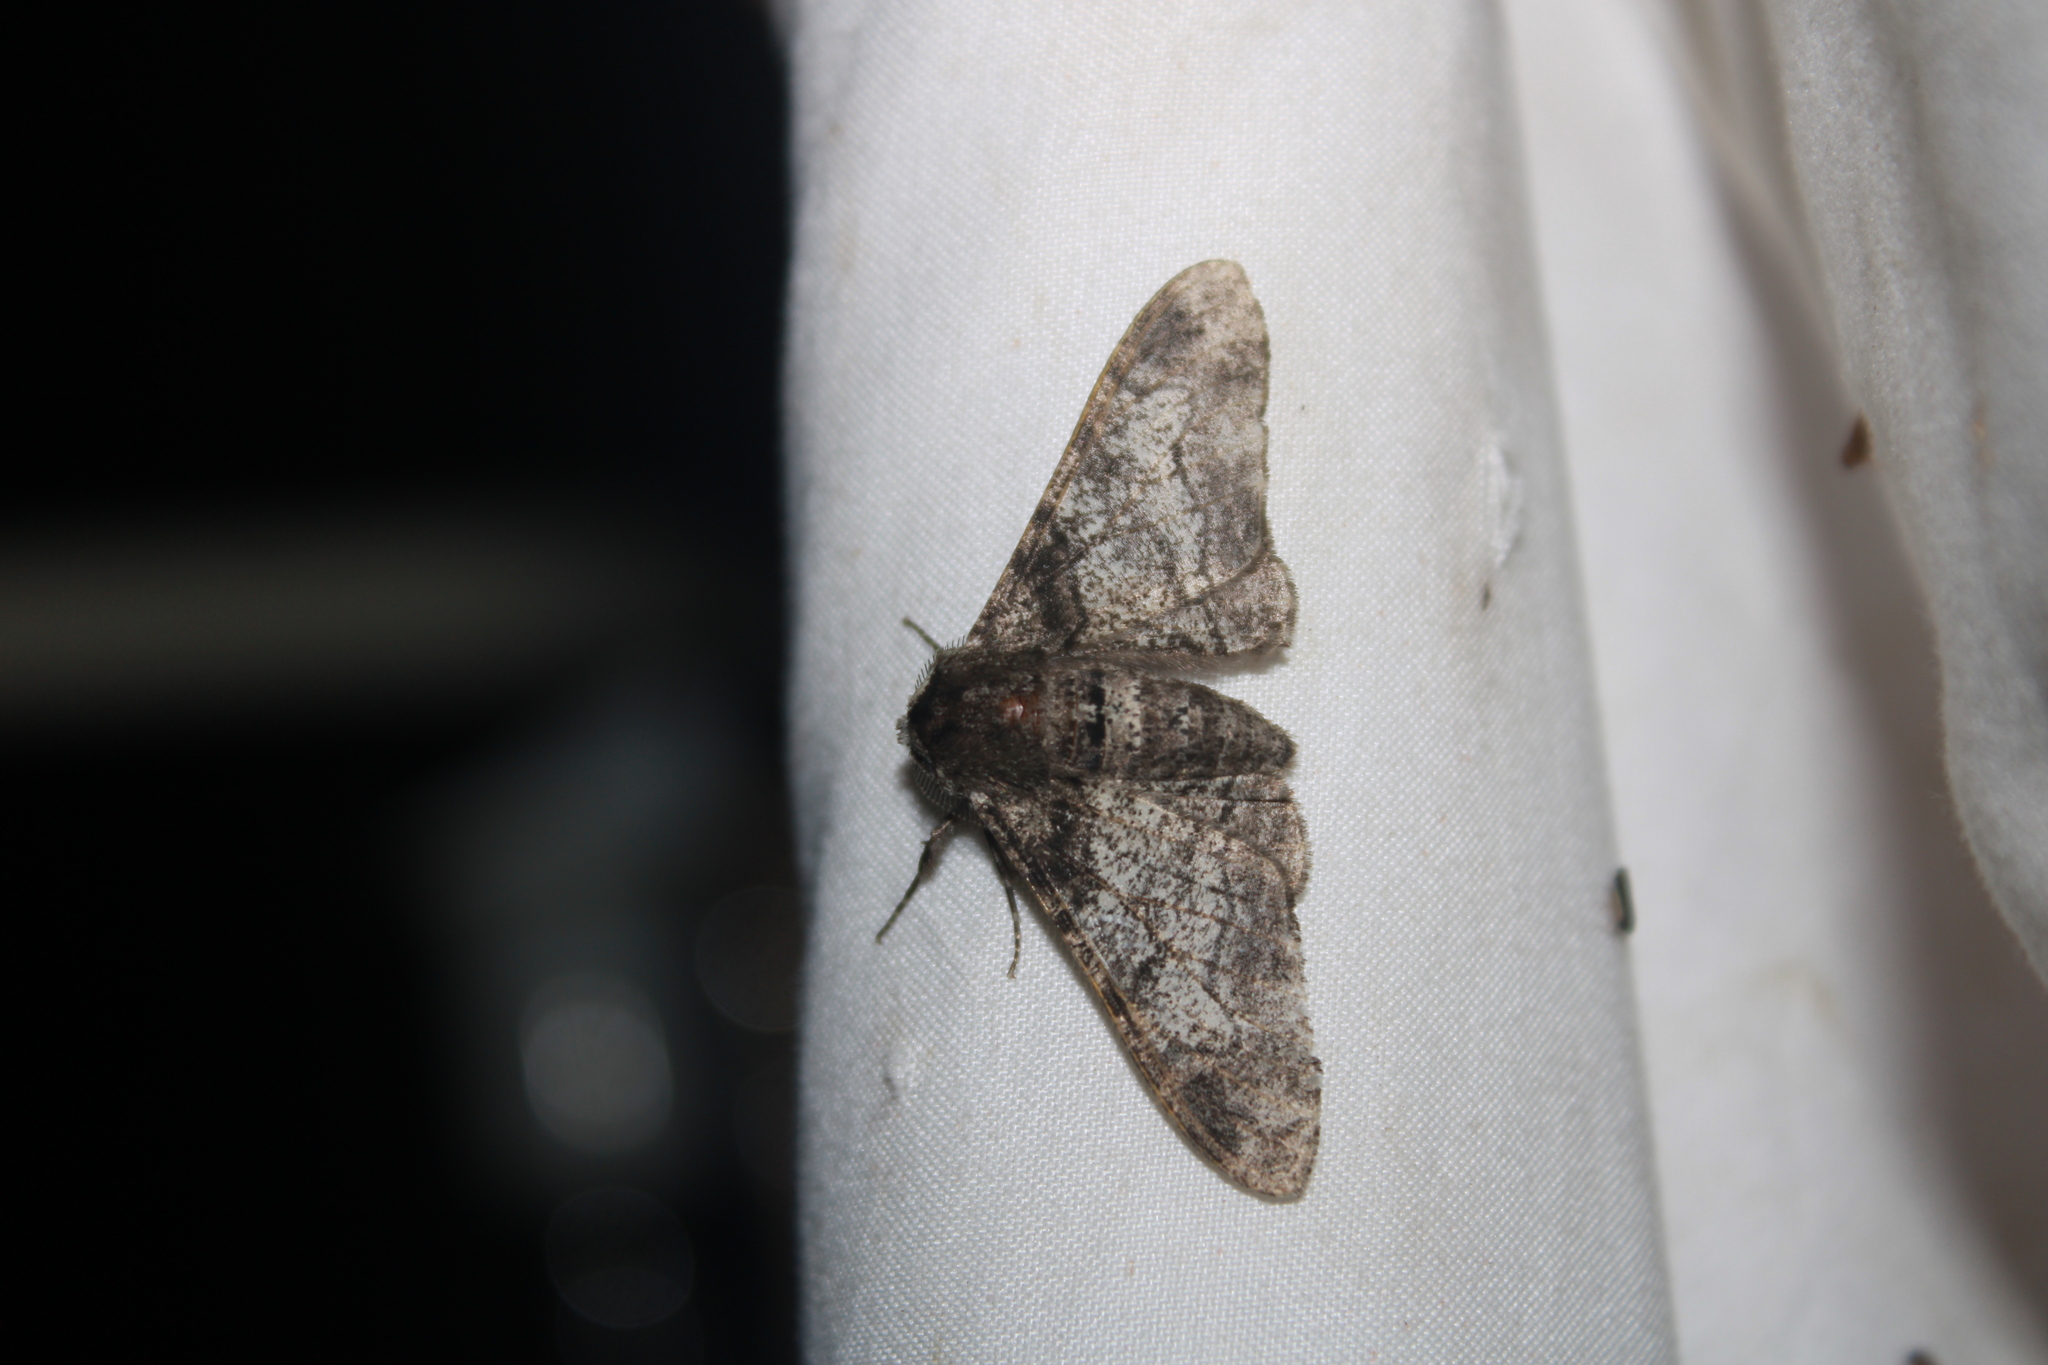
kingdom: Animalia
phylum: Arthropoda
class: Insecta
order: Lepidoptera
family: Geometridae
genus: Biston
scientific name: Biston betularia
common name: Peppered moth
